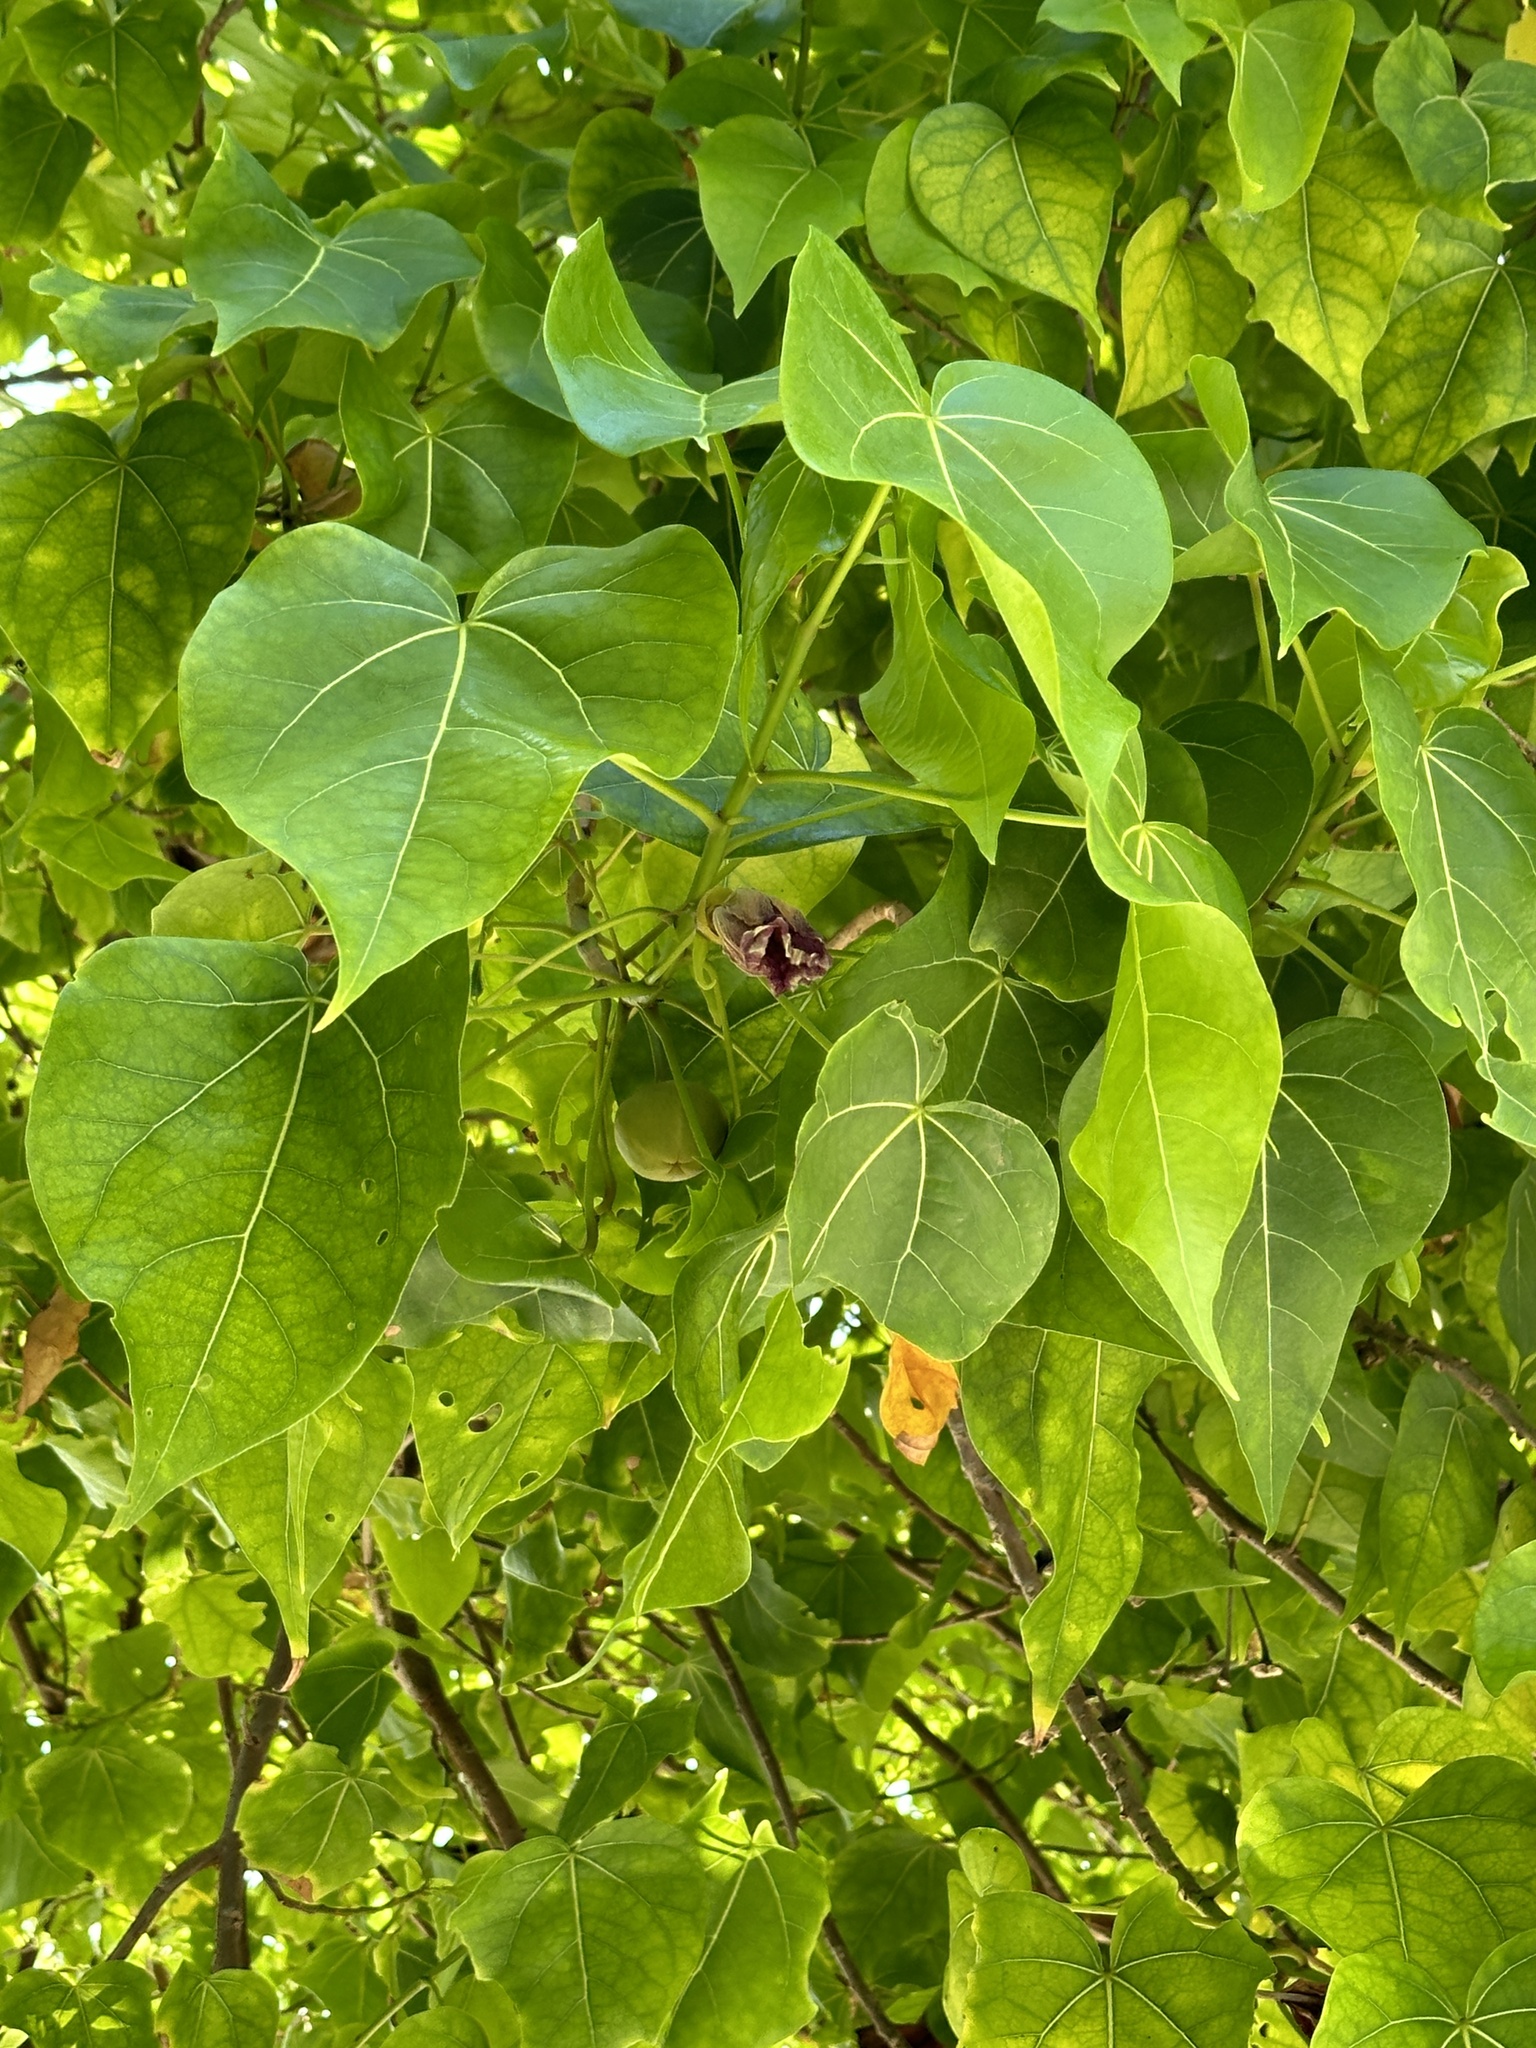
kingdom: Plantae
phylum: Tracheophyta
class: Magnoliopsida
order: Malvales
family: Malvaceae
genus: Thespesia
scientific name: Thespesia populnea
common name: Seaside mahoe
